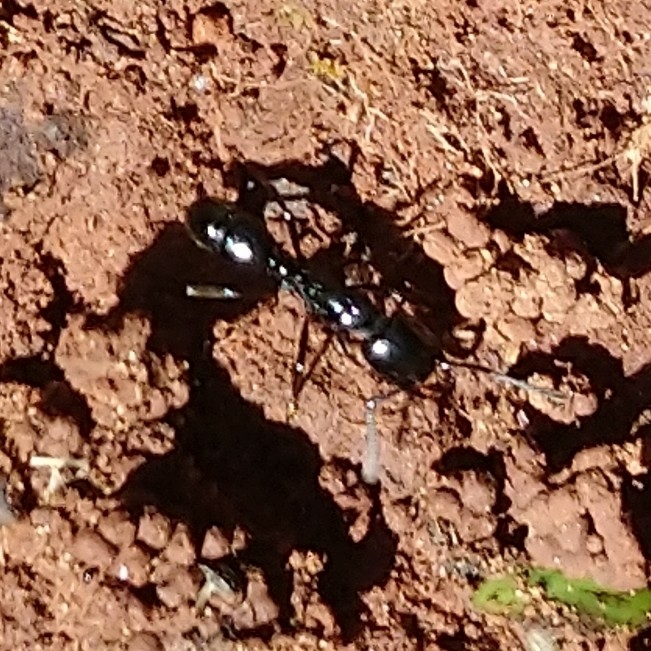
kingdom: Animalia
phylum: Arthropoda
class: Insecta
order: Hymenoptera
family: Formicidae
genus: Plectroctena
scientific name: Plectroctena mandibularis
